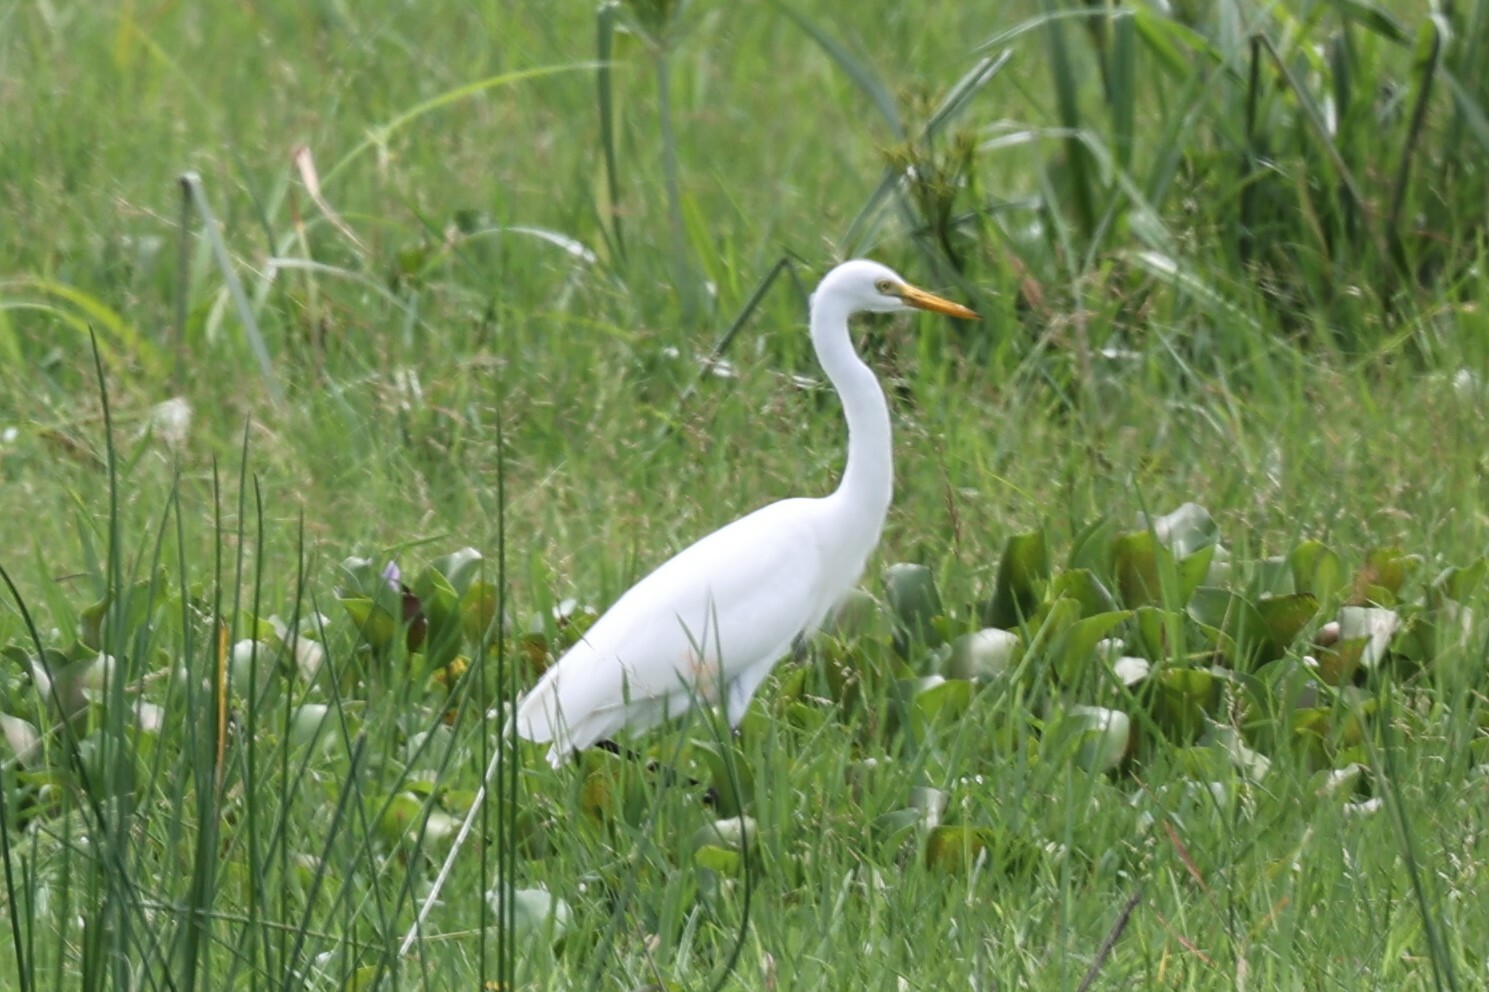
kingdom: Animalia
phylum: Chordata
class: Aves
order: Pelecaniformes
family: Ardeidae
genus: Egretta
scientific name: Egretta intermedia
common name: Intermediate egret
